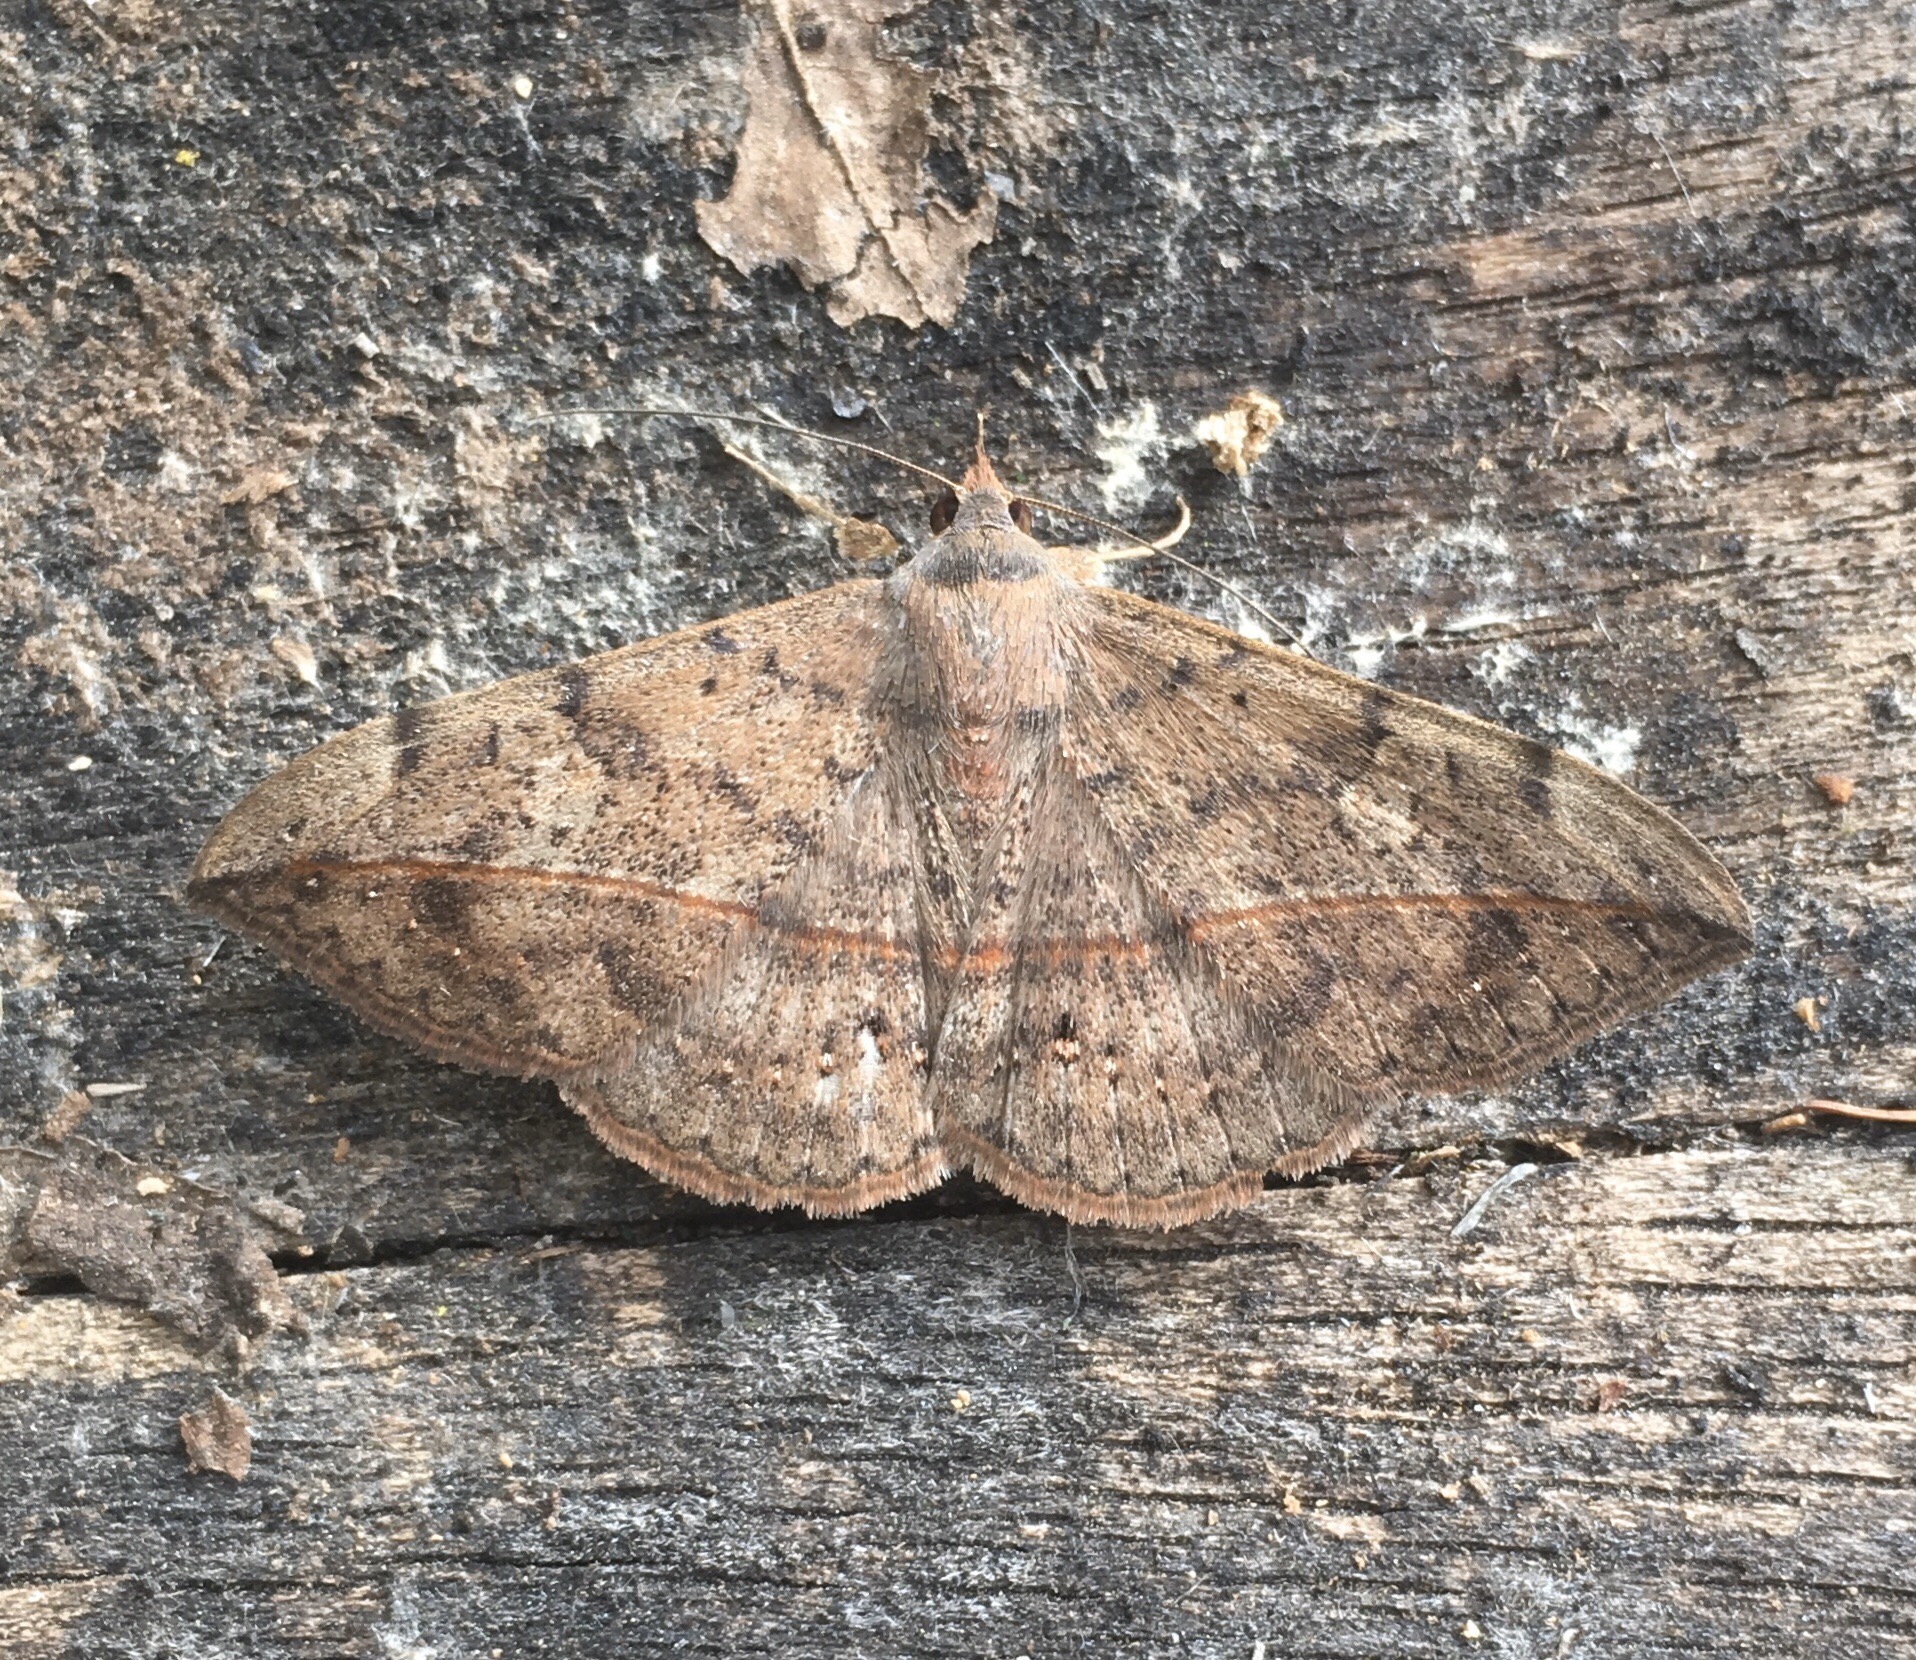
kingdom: Animalia
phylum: Arthropoda
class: Insecta
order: Lepidoptera
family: Erebidae
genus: Anticarsia
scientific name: Anticarsia gemmatalis
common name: Cutworm moth
